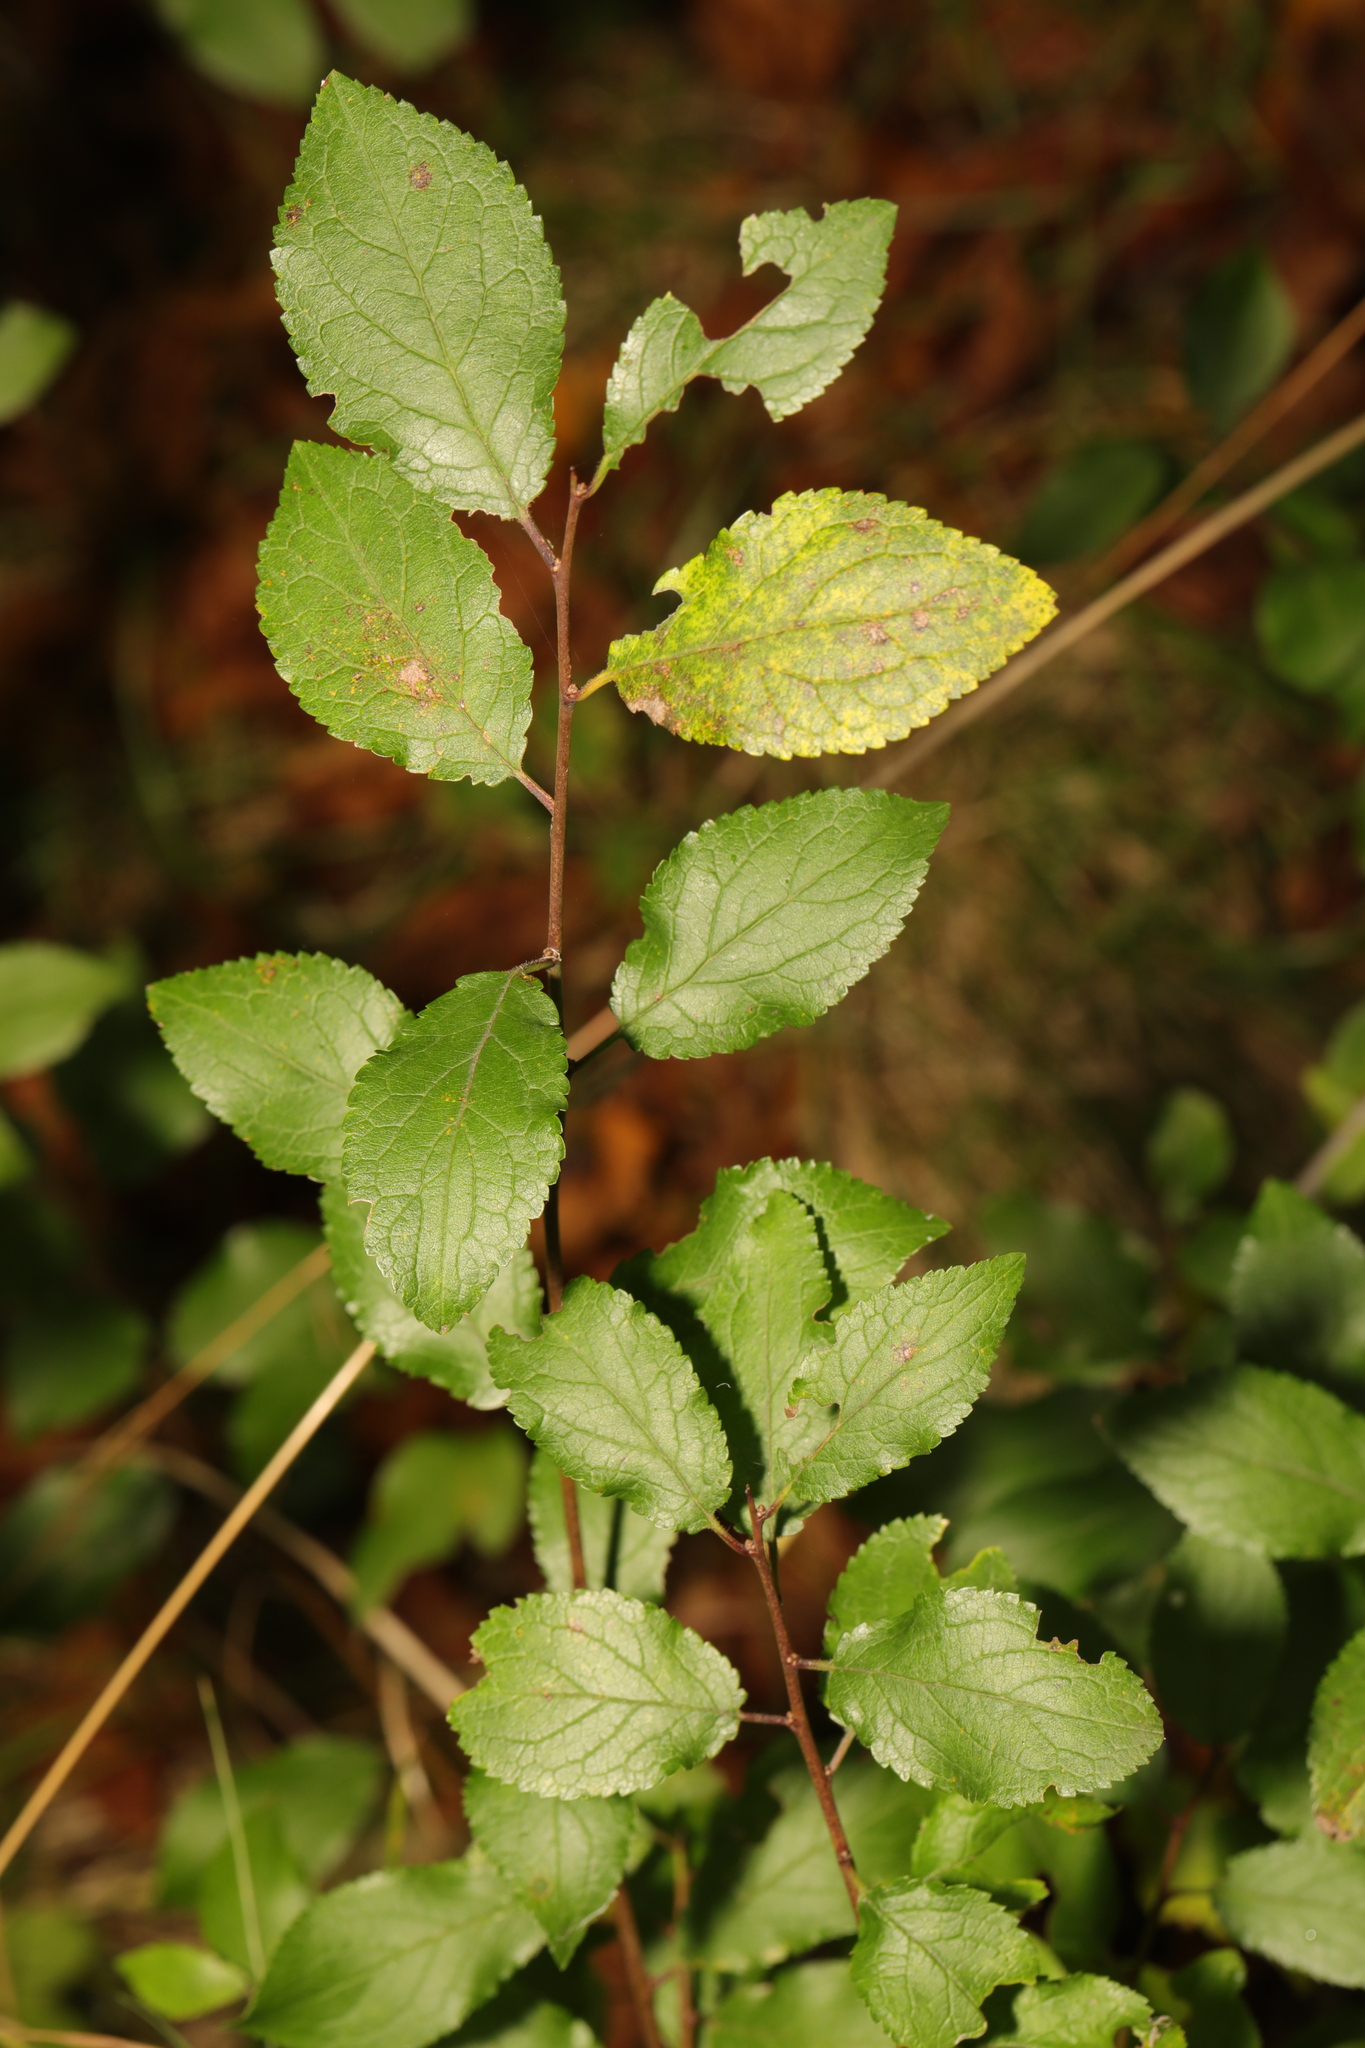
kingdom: Plantae
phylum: Tracheophyta
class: Magnoliopsida
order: Rosales
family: Rosaceae
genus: Prunus
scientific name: Prunus spinosa
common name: Blackthorn
